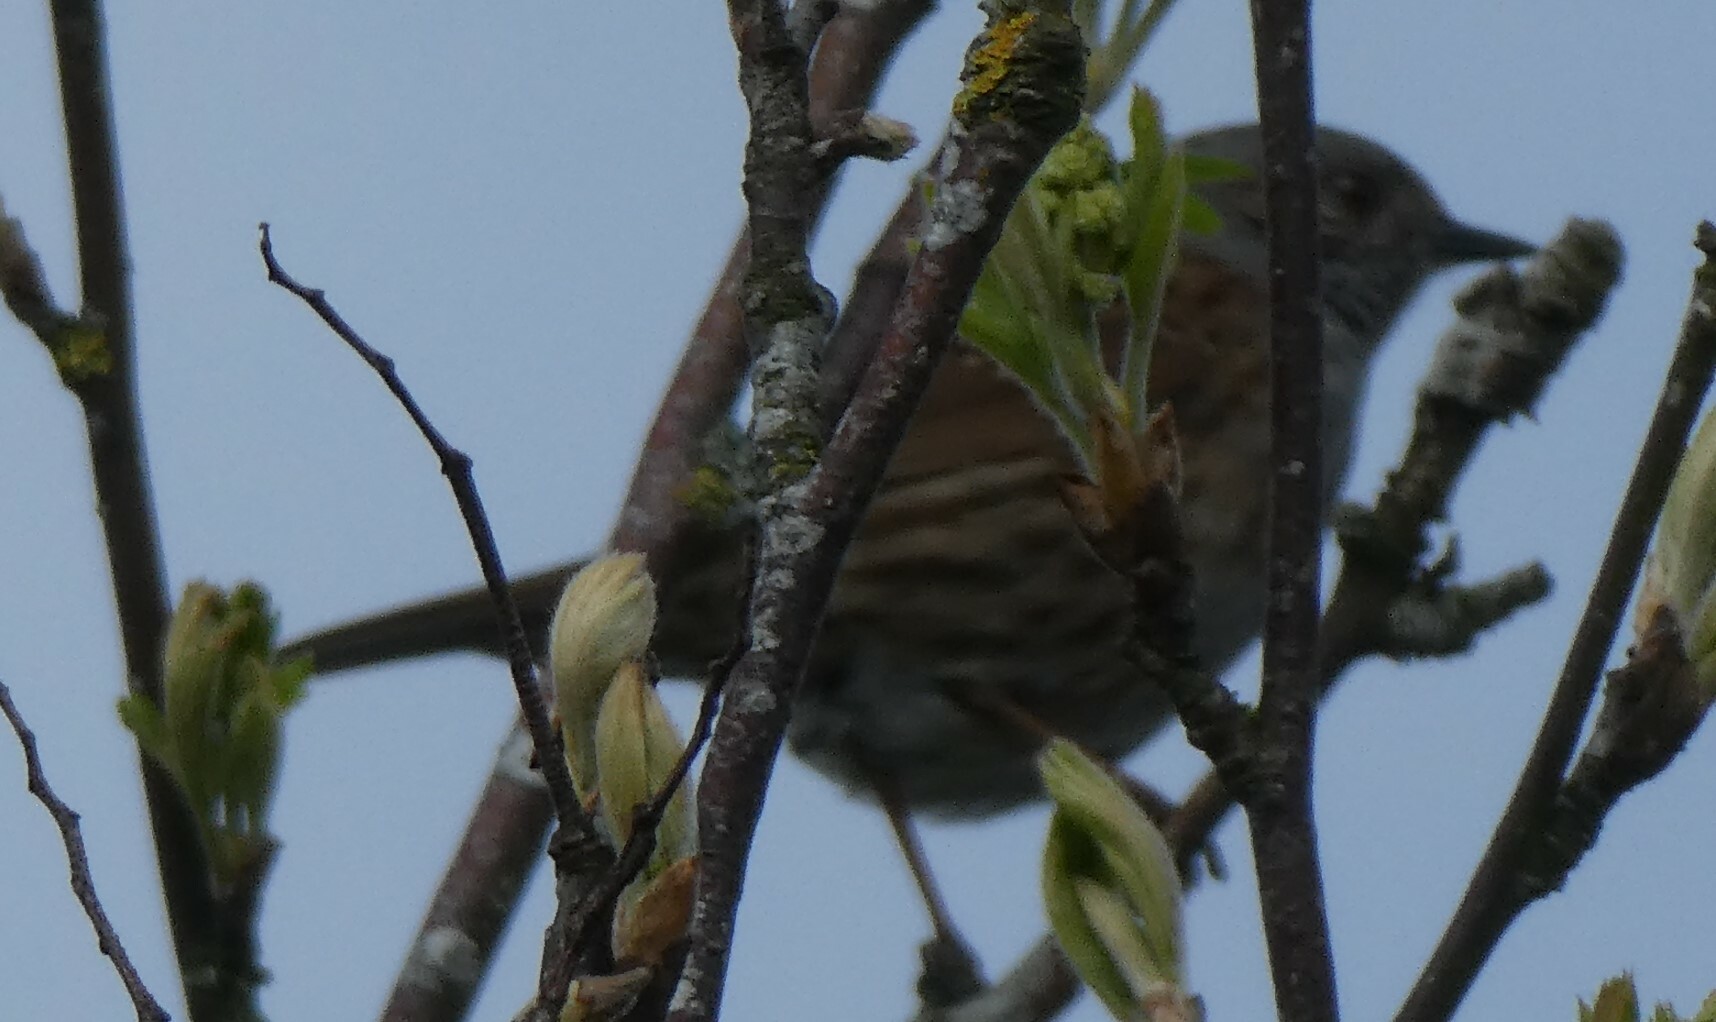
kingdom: Animalia
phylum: Chordata
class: Aves
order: Passeriformes
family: Prunellidae
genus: Prunella
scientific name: Prunella modularis
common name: Dunnock
